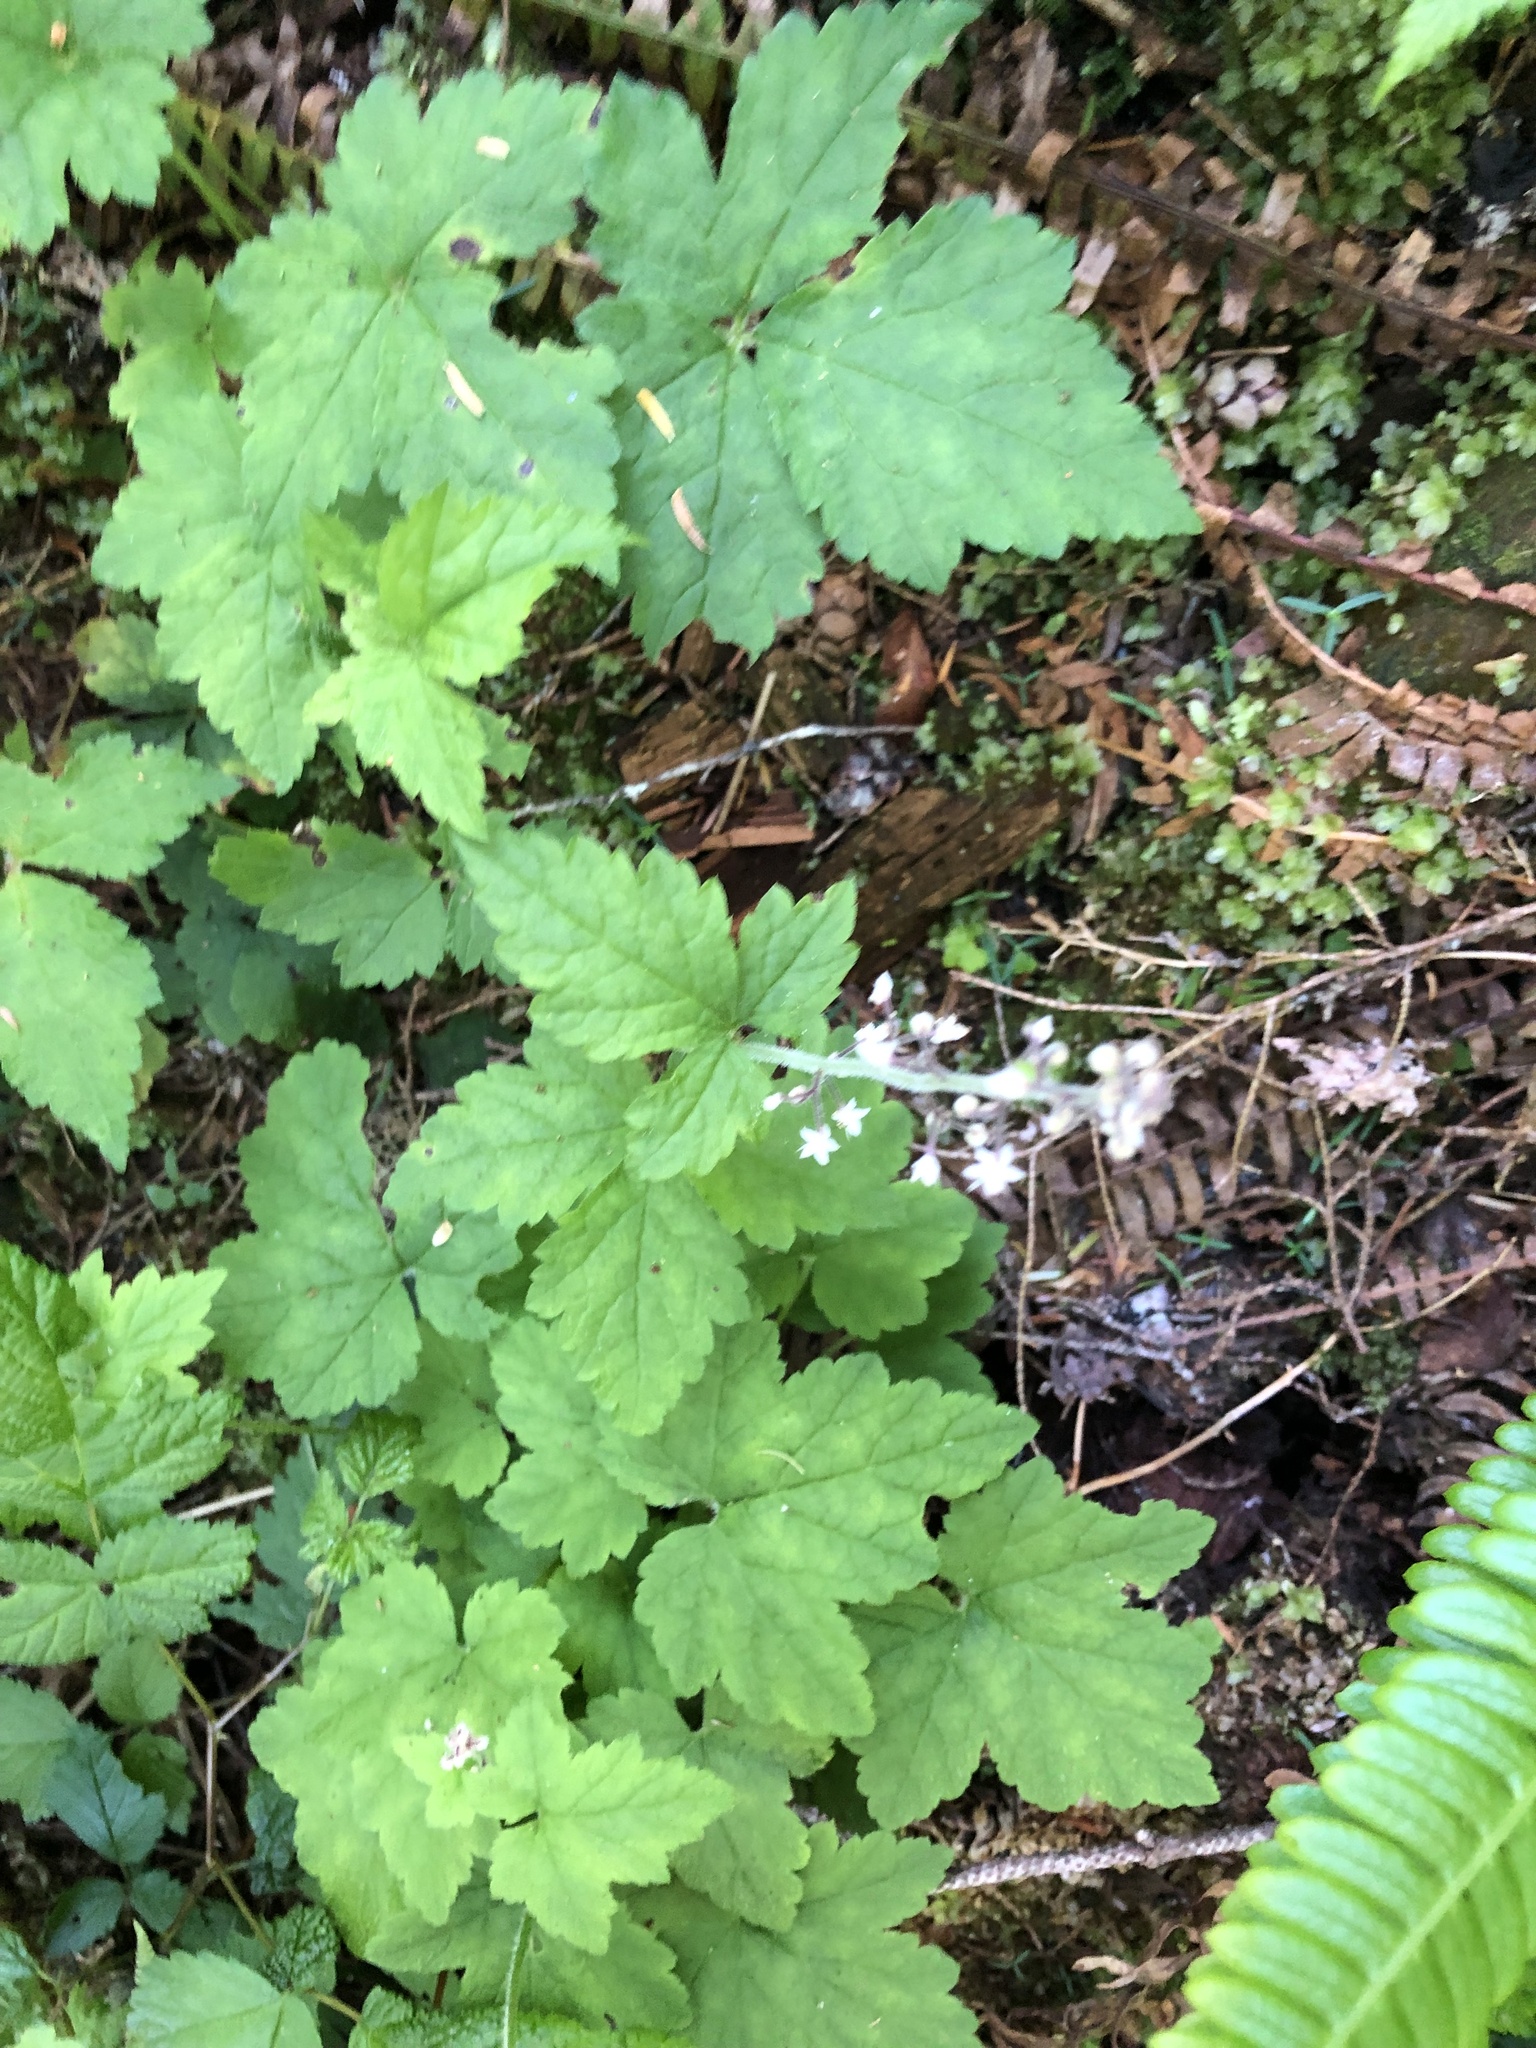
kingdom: Plantae
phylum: Tracheophyta
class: Magnoliopsida
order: Saxifragales
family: Saxifragaceae
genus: Tiarella
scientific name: Tiarella trifoliata
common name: Sugar-scoop
